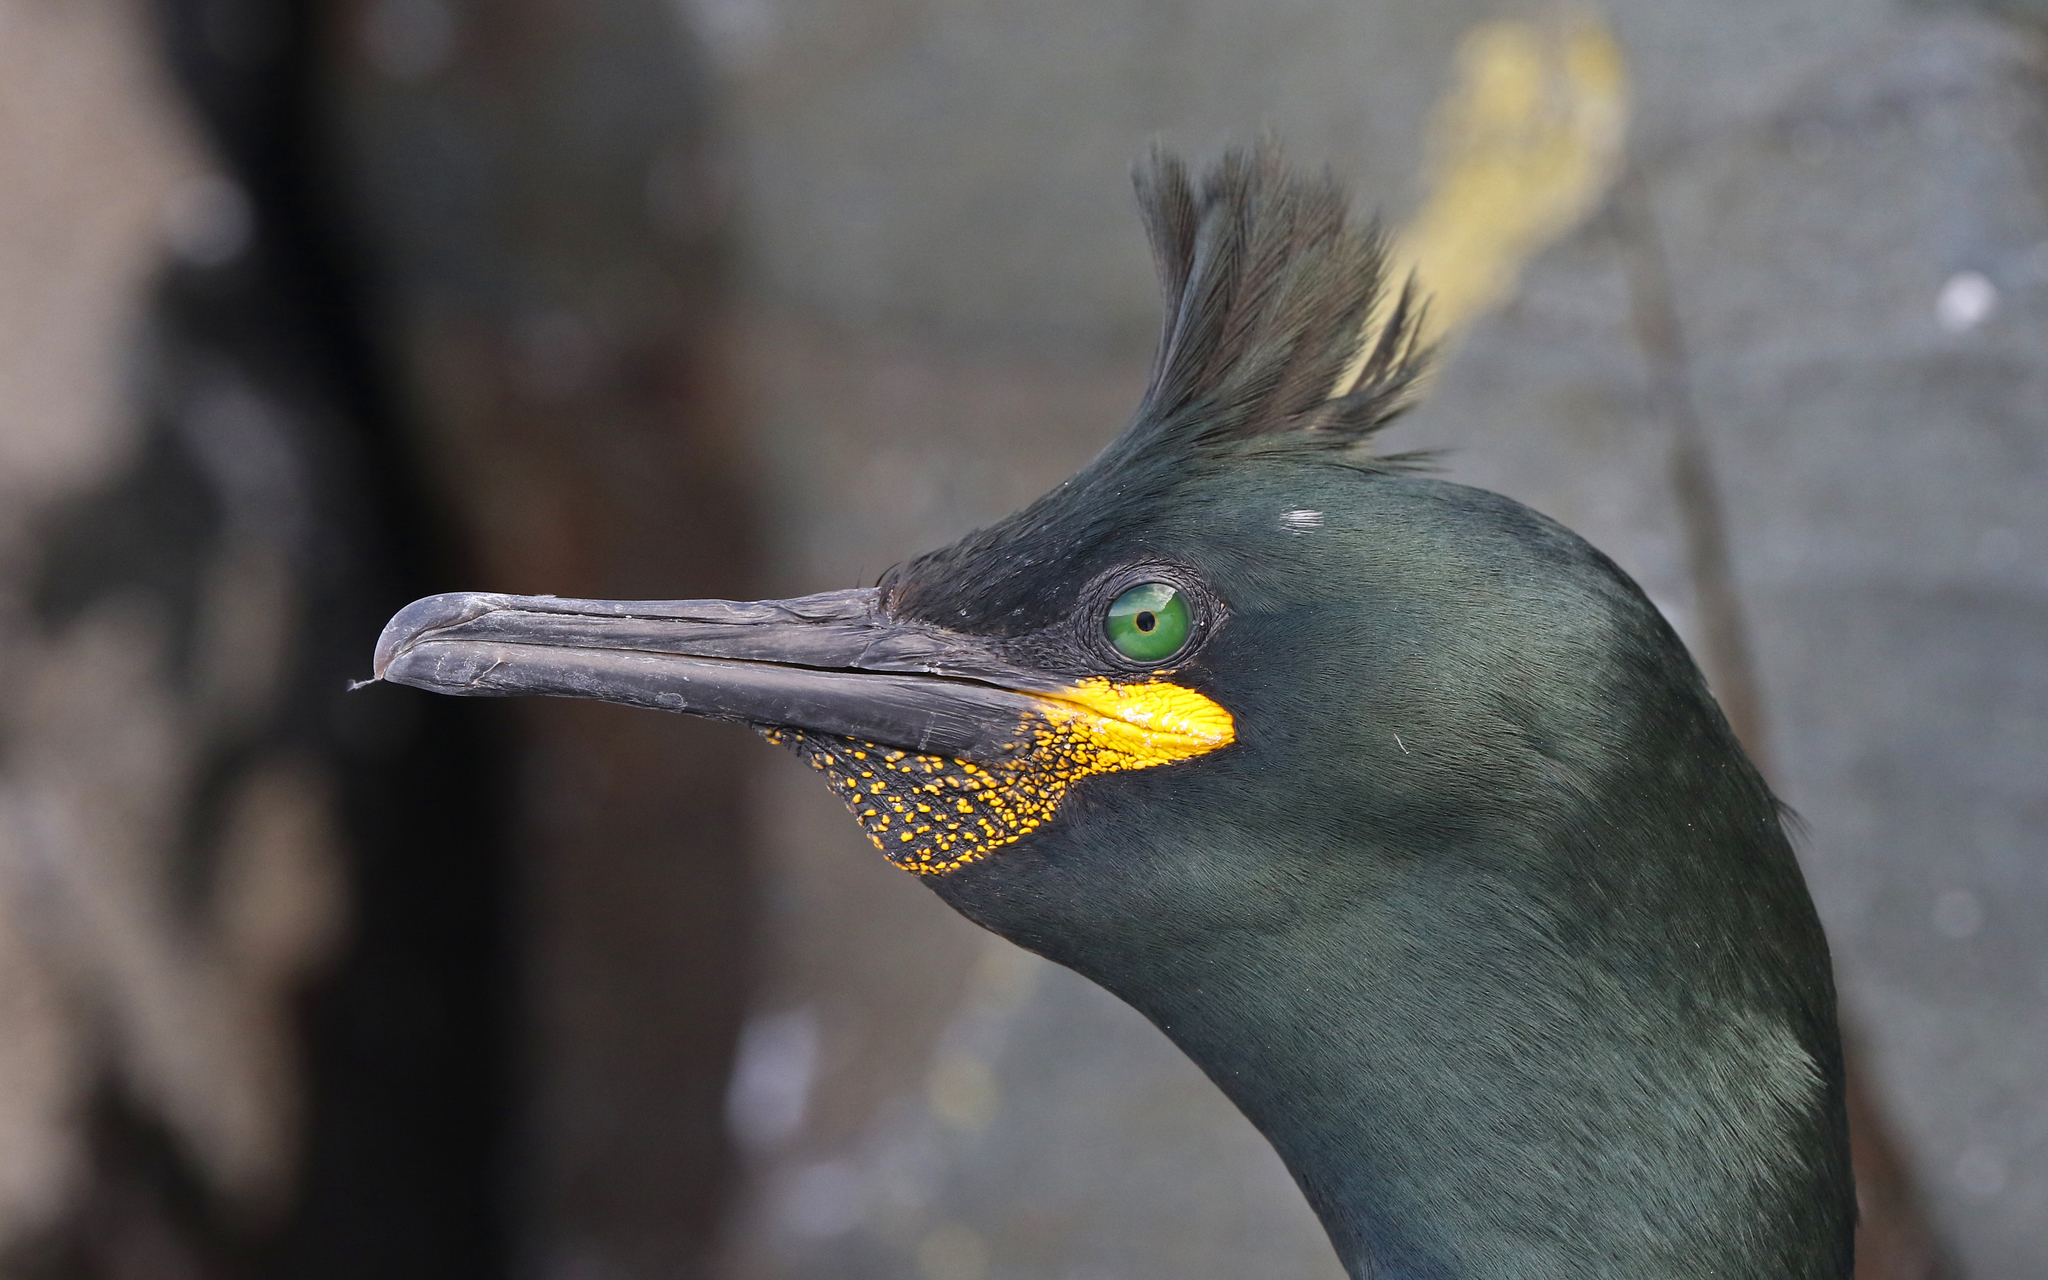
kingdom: Animalia
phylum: Chordata
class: Aves
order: Suliformes
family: Phalacrocoracidae
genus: Phalacrocorax
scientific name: Phalacrocorax aristotelis
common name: European shag
